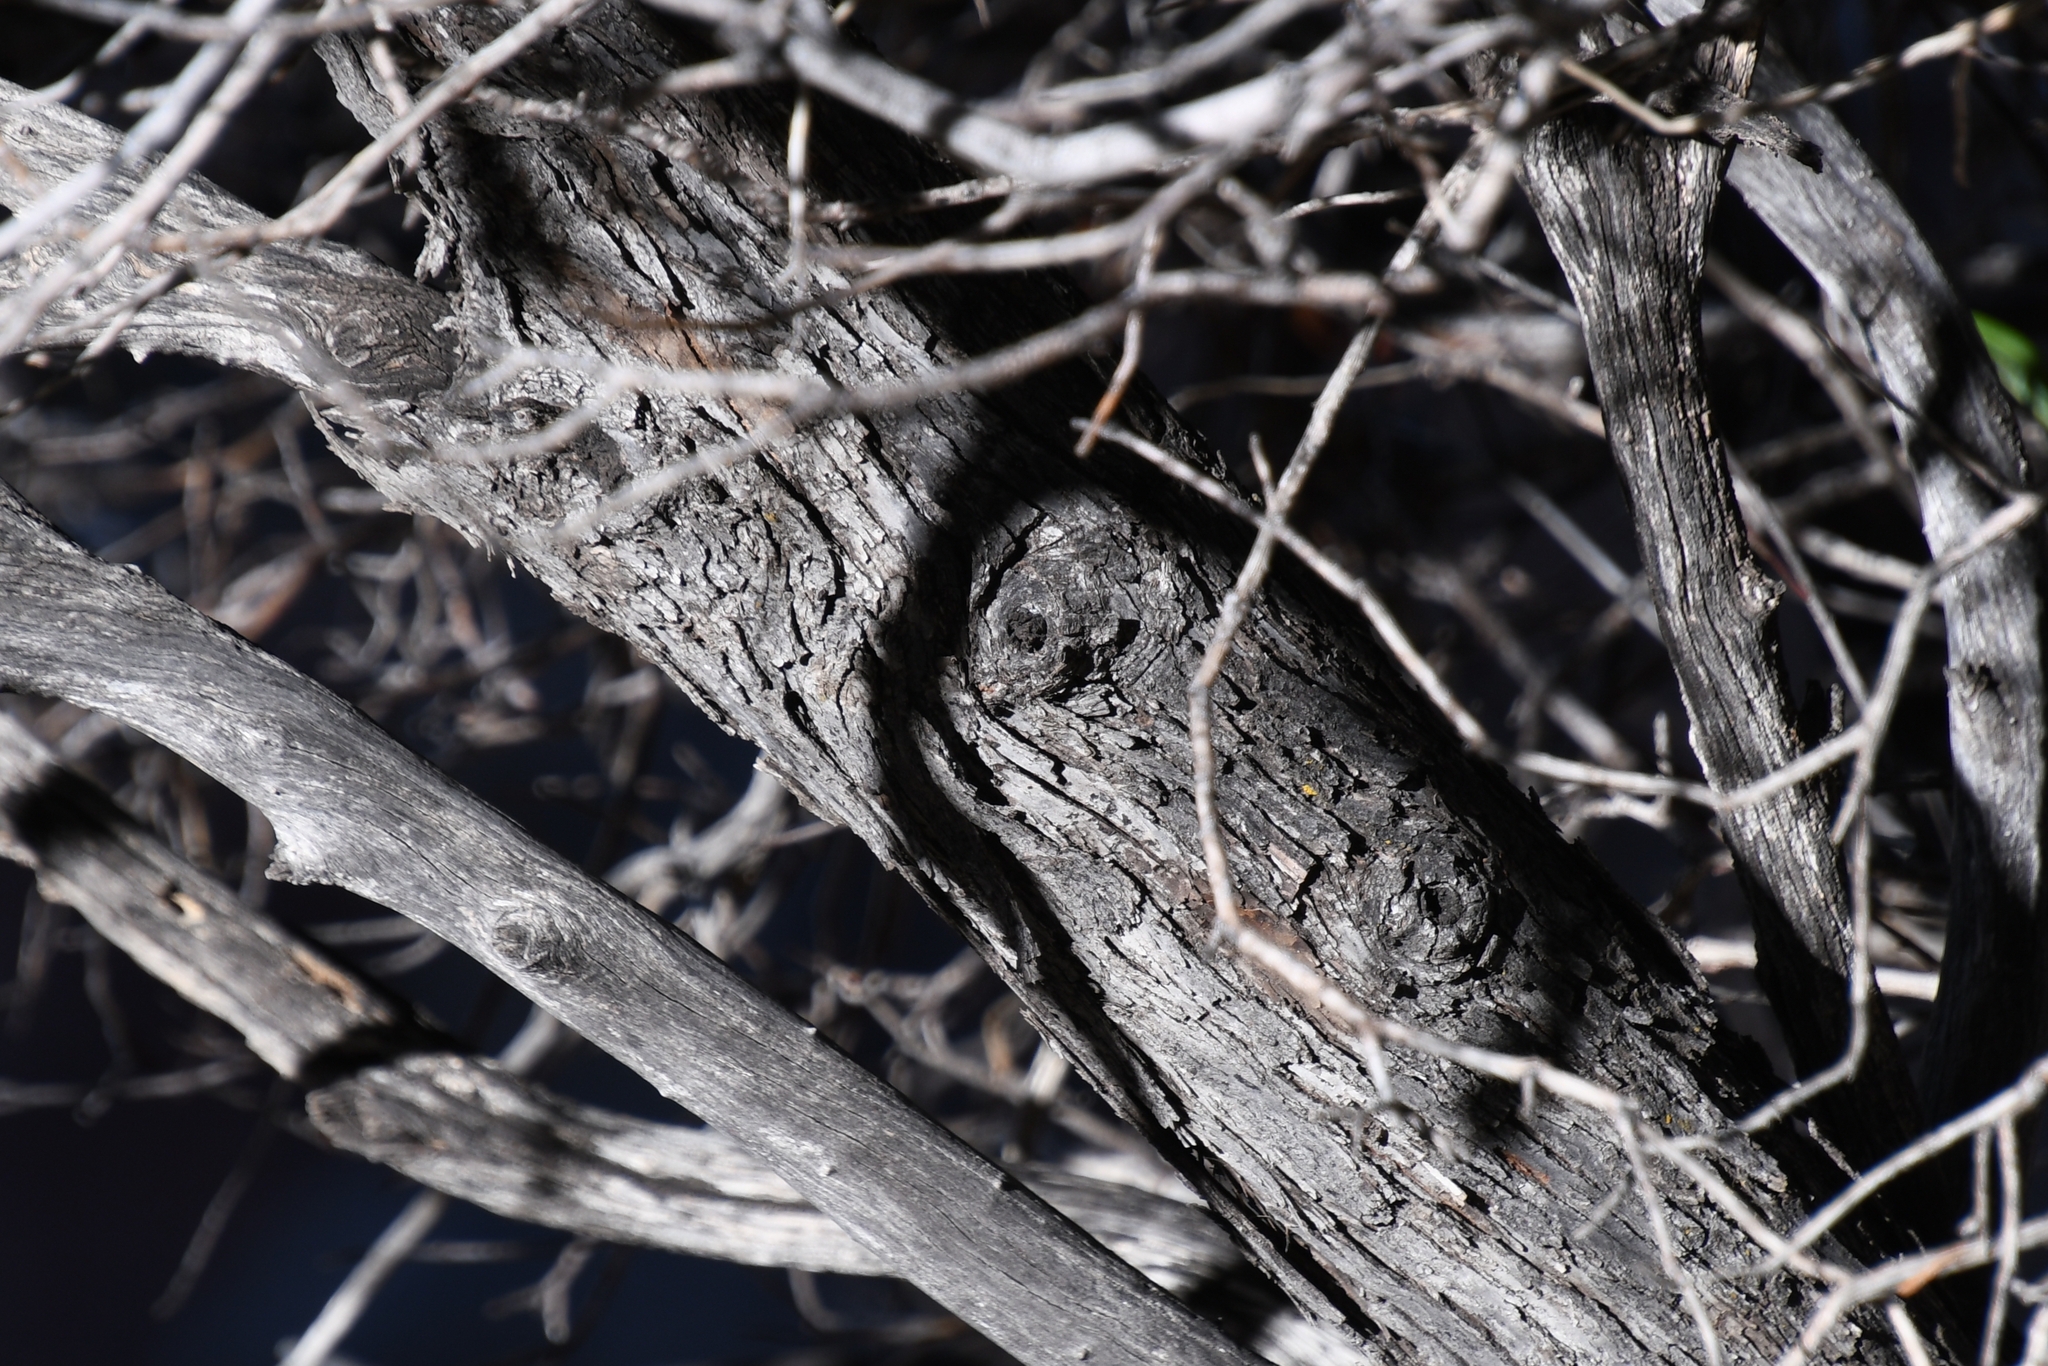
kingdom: Plantae
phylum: Tracheophyta
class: Magnoliopsida
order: Rosales
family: Rosaceae
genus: Vauquelinia
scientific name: Vauquelinia californica
